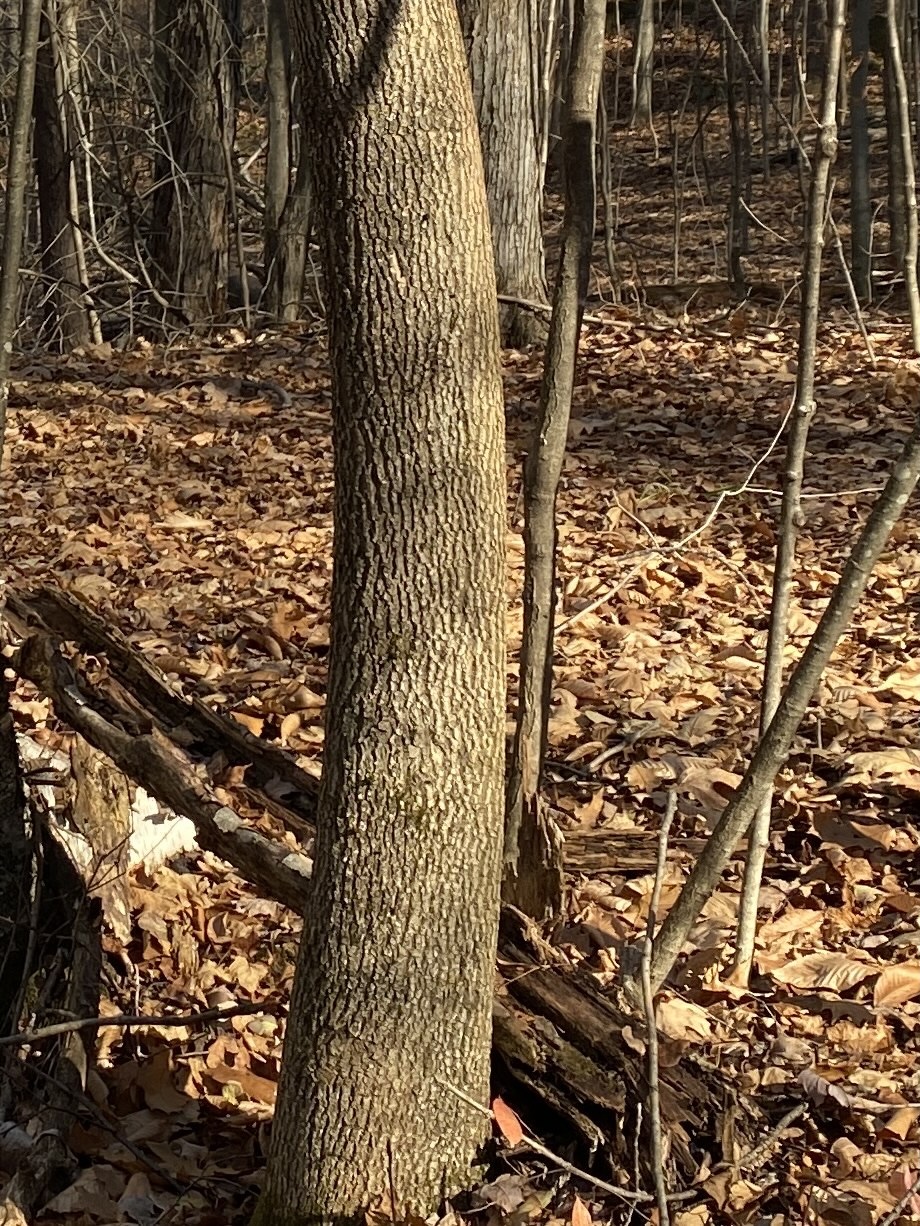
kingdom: Plantae
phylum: Tracheophyta
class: Magnoliopsida
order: Lamiales
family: Oleaceae
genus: Fraxinus
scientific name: Fraxinus americana
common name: White ash
